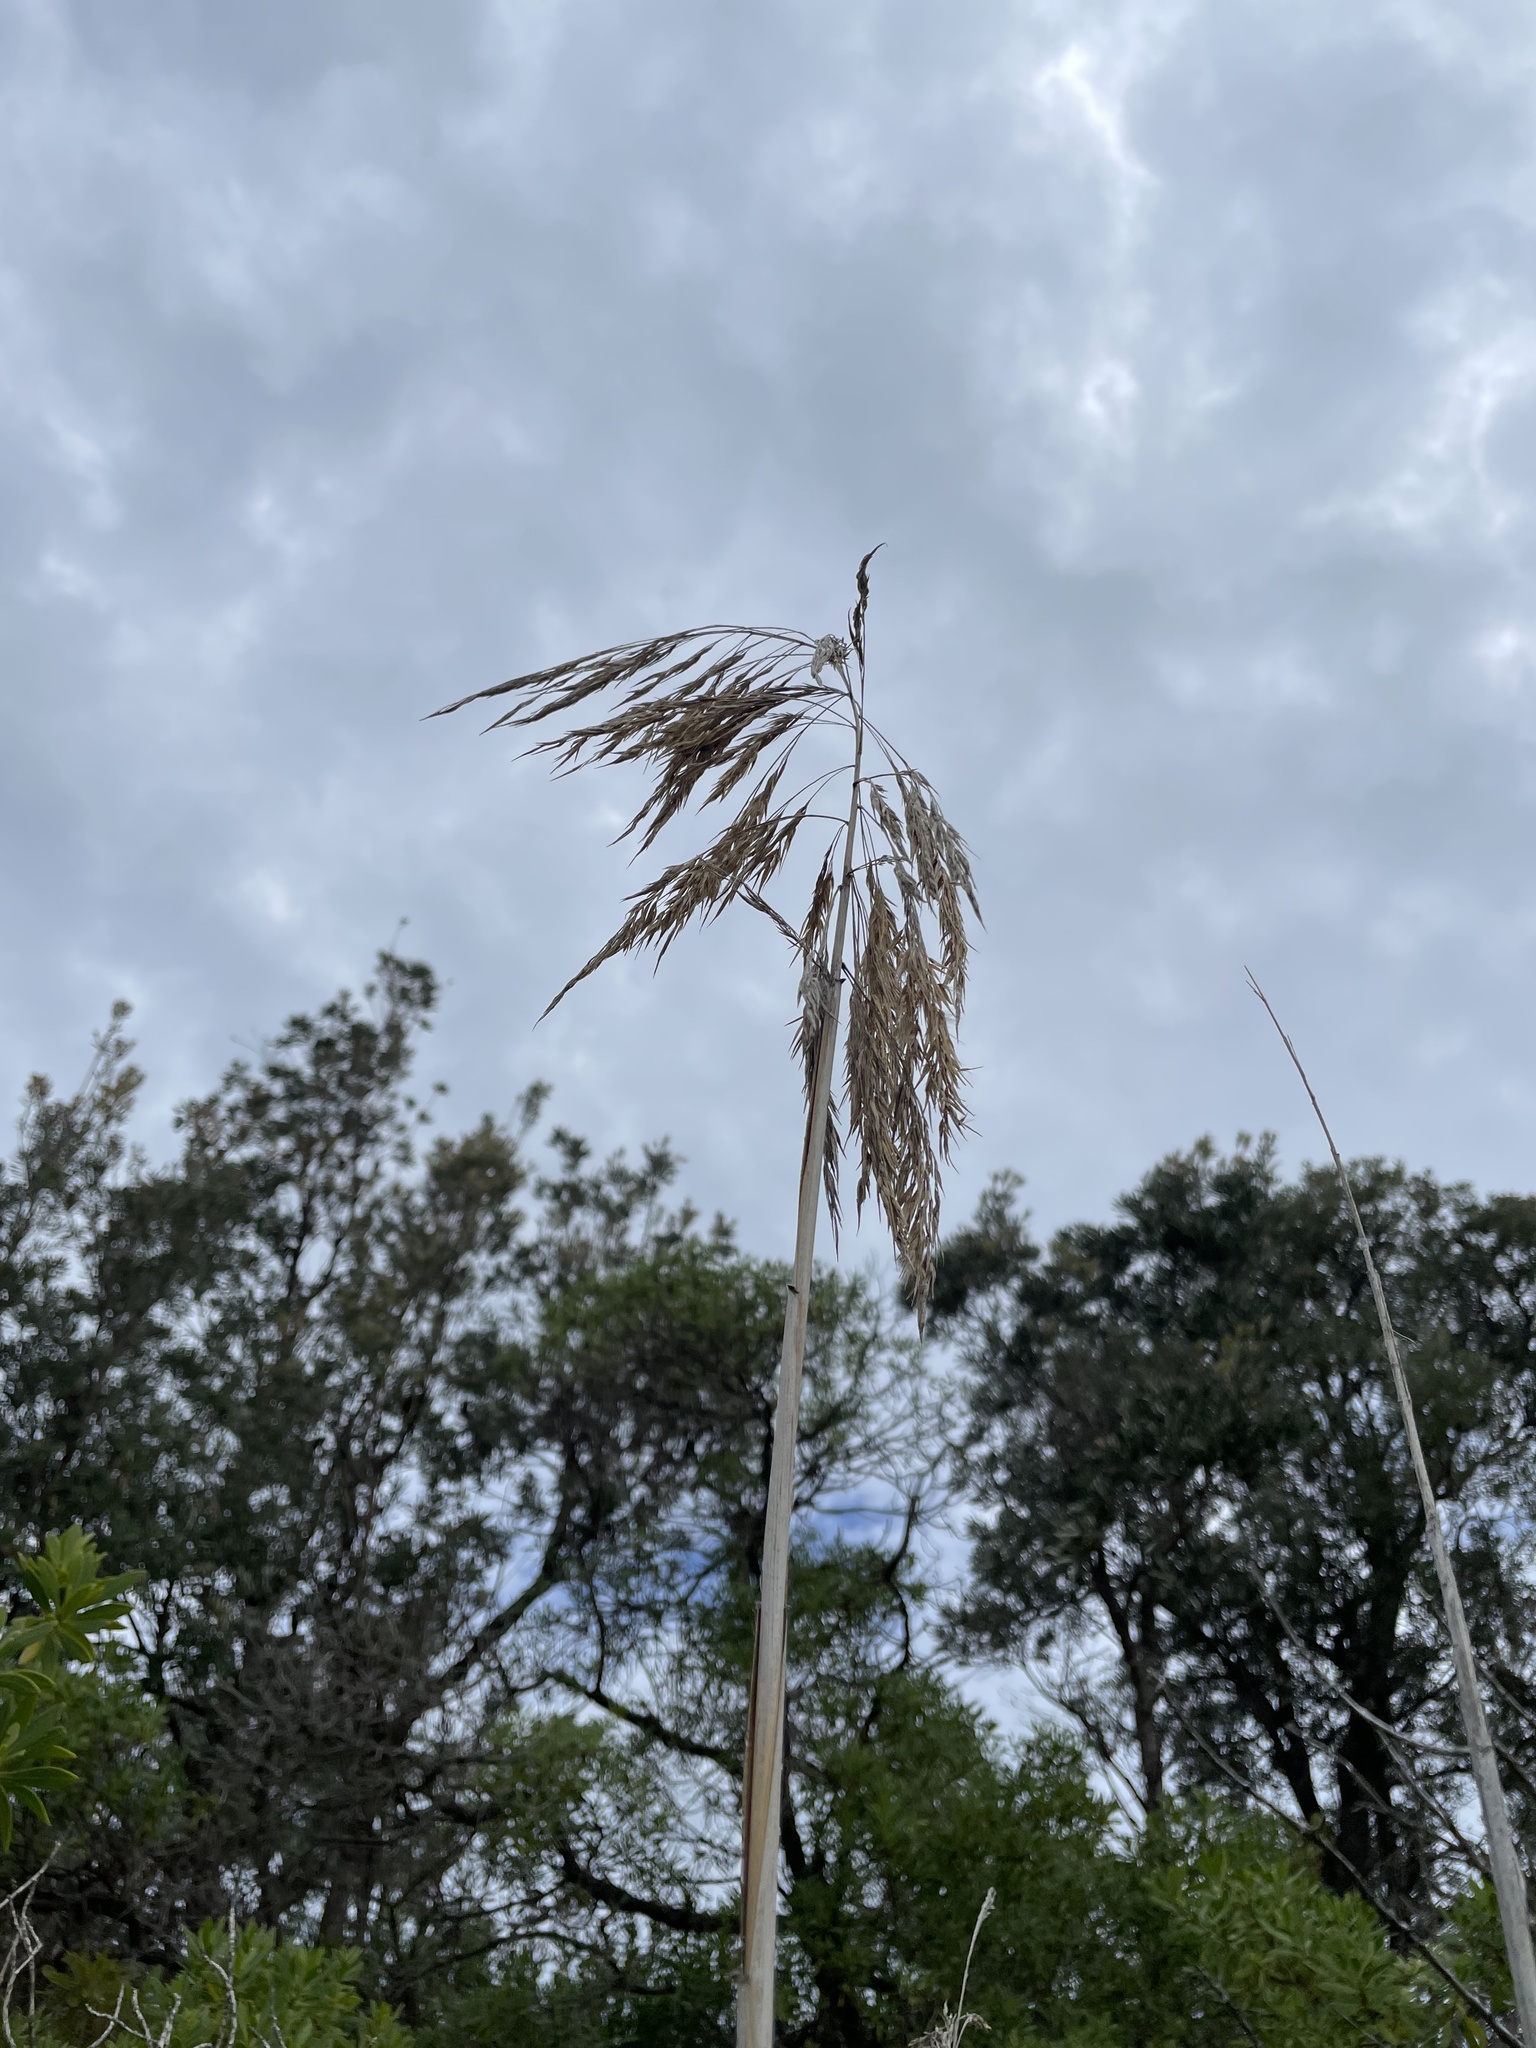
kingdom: Plantae
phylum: Tracheophyta
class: Liliopsida
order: Poales
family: Poaceae
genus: Phragmites
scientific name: Phragmites australis
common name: Common reed
